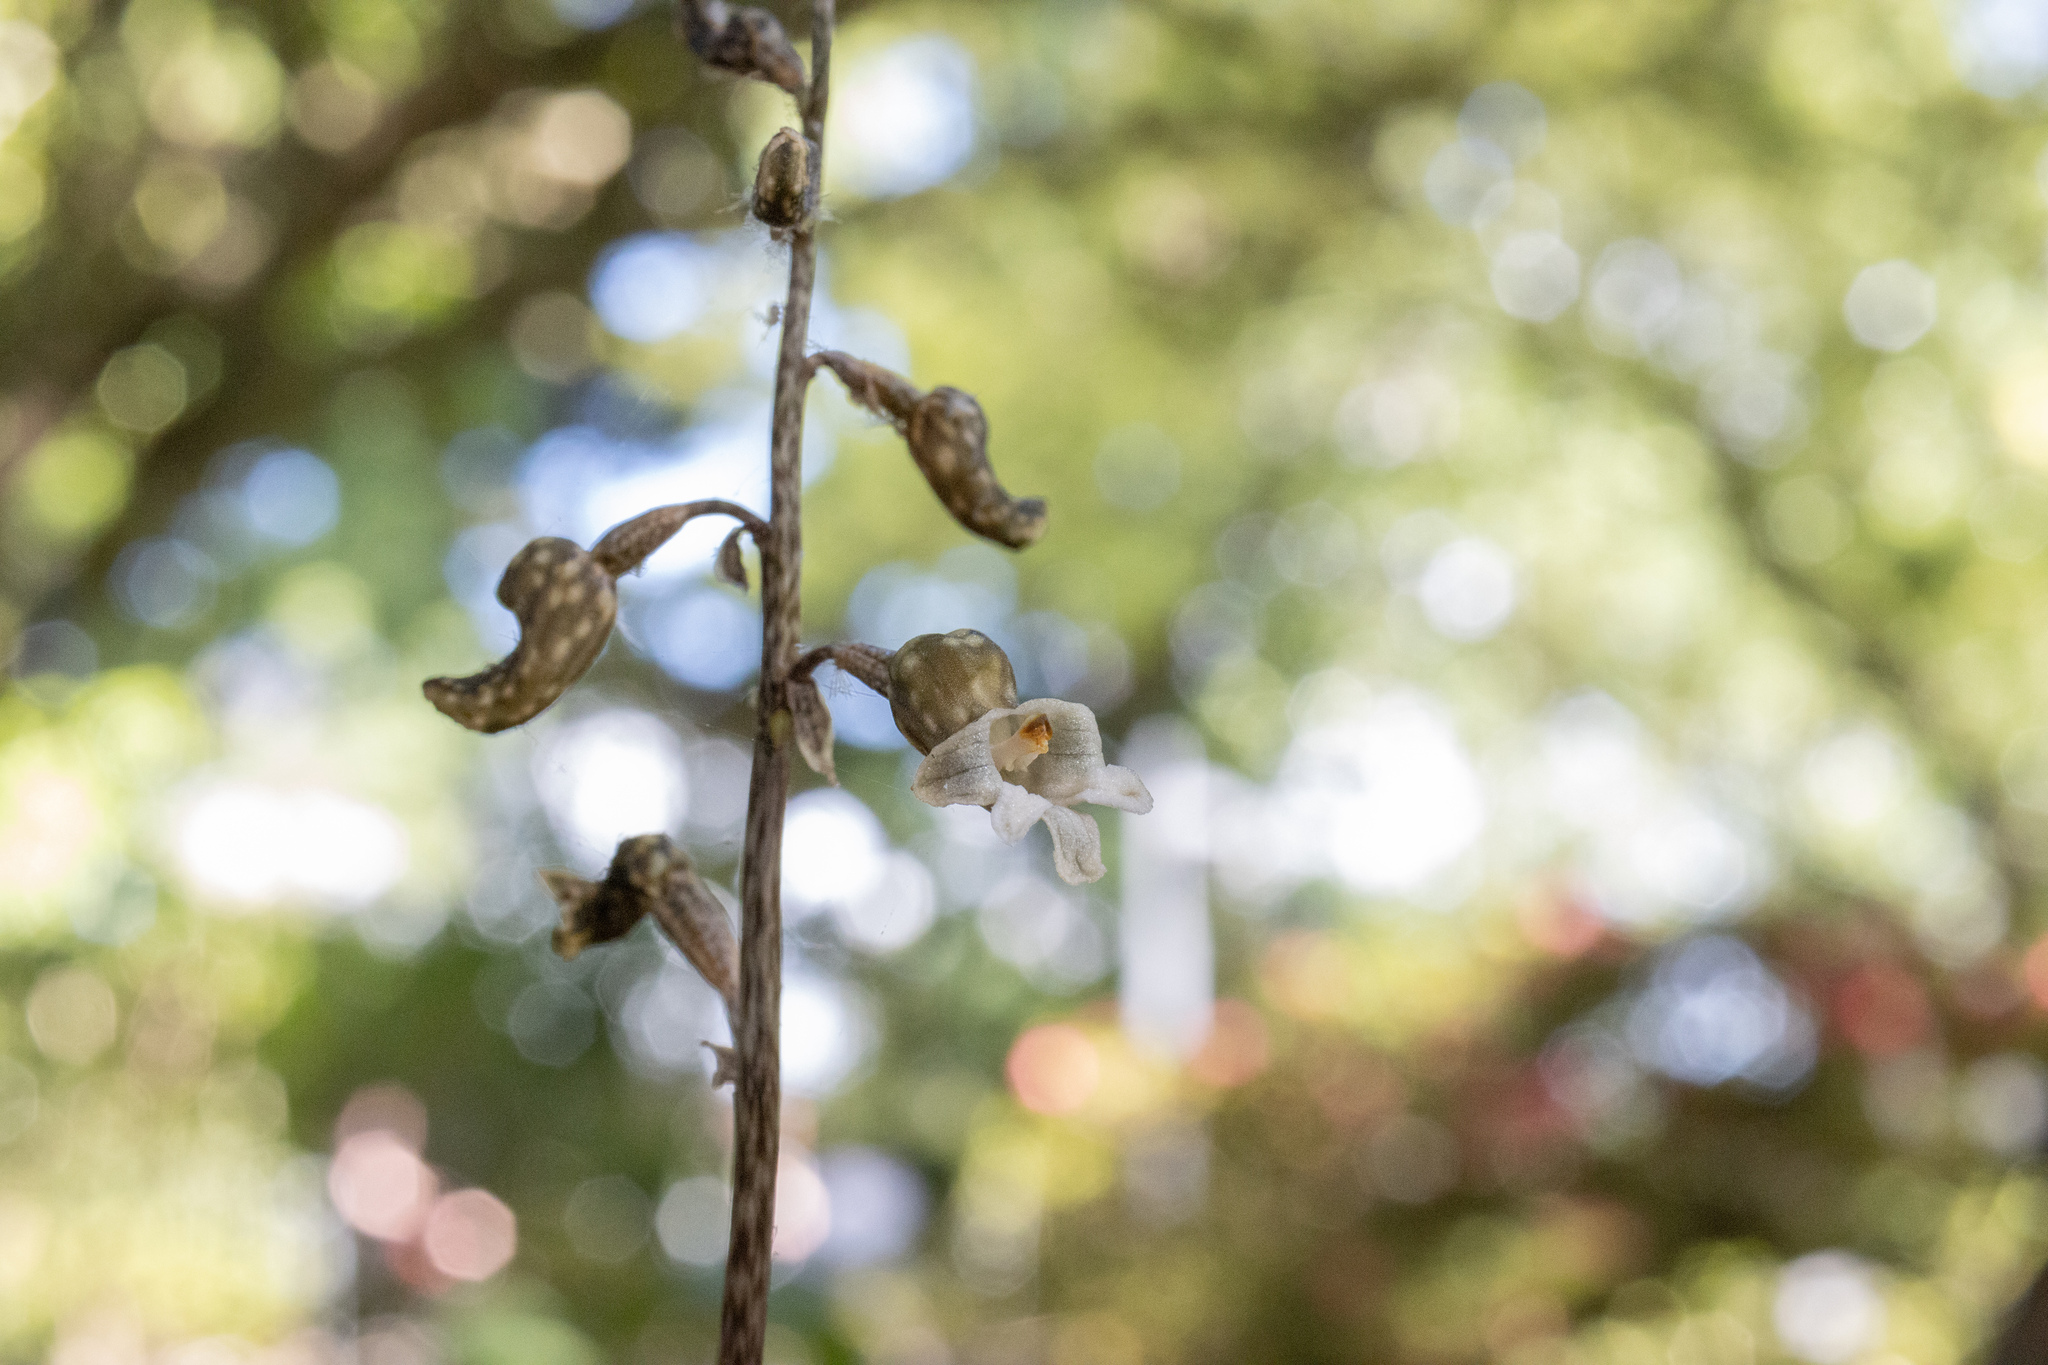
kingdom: Plantae
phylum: Tracheophyta
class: Liliopsida
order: Asparagales
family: Orchidaceae
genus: Gastrodia
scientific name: Gastrodia cunninghamii
